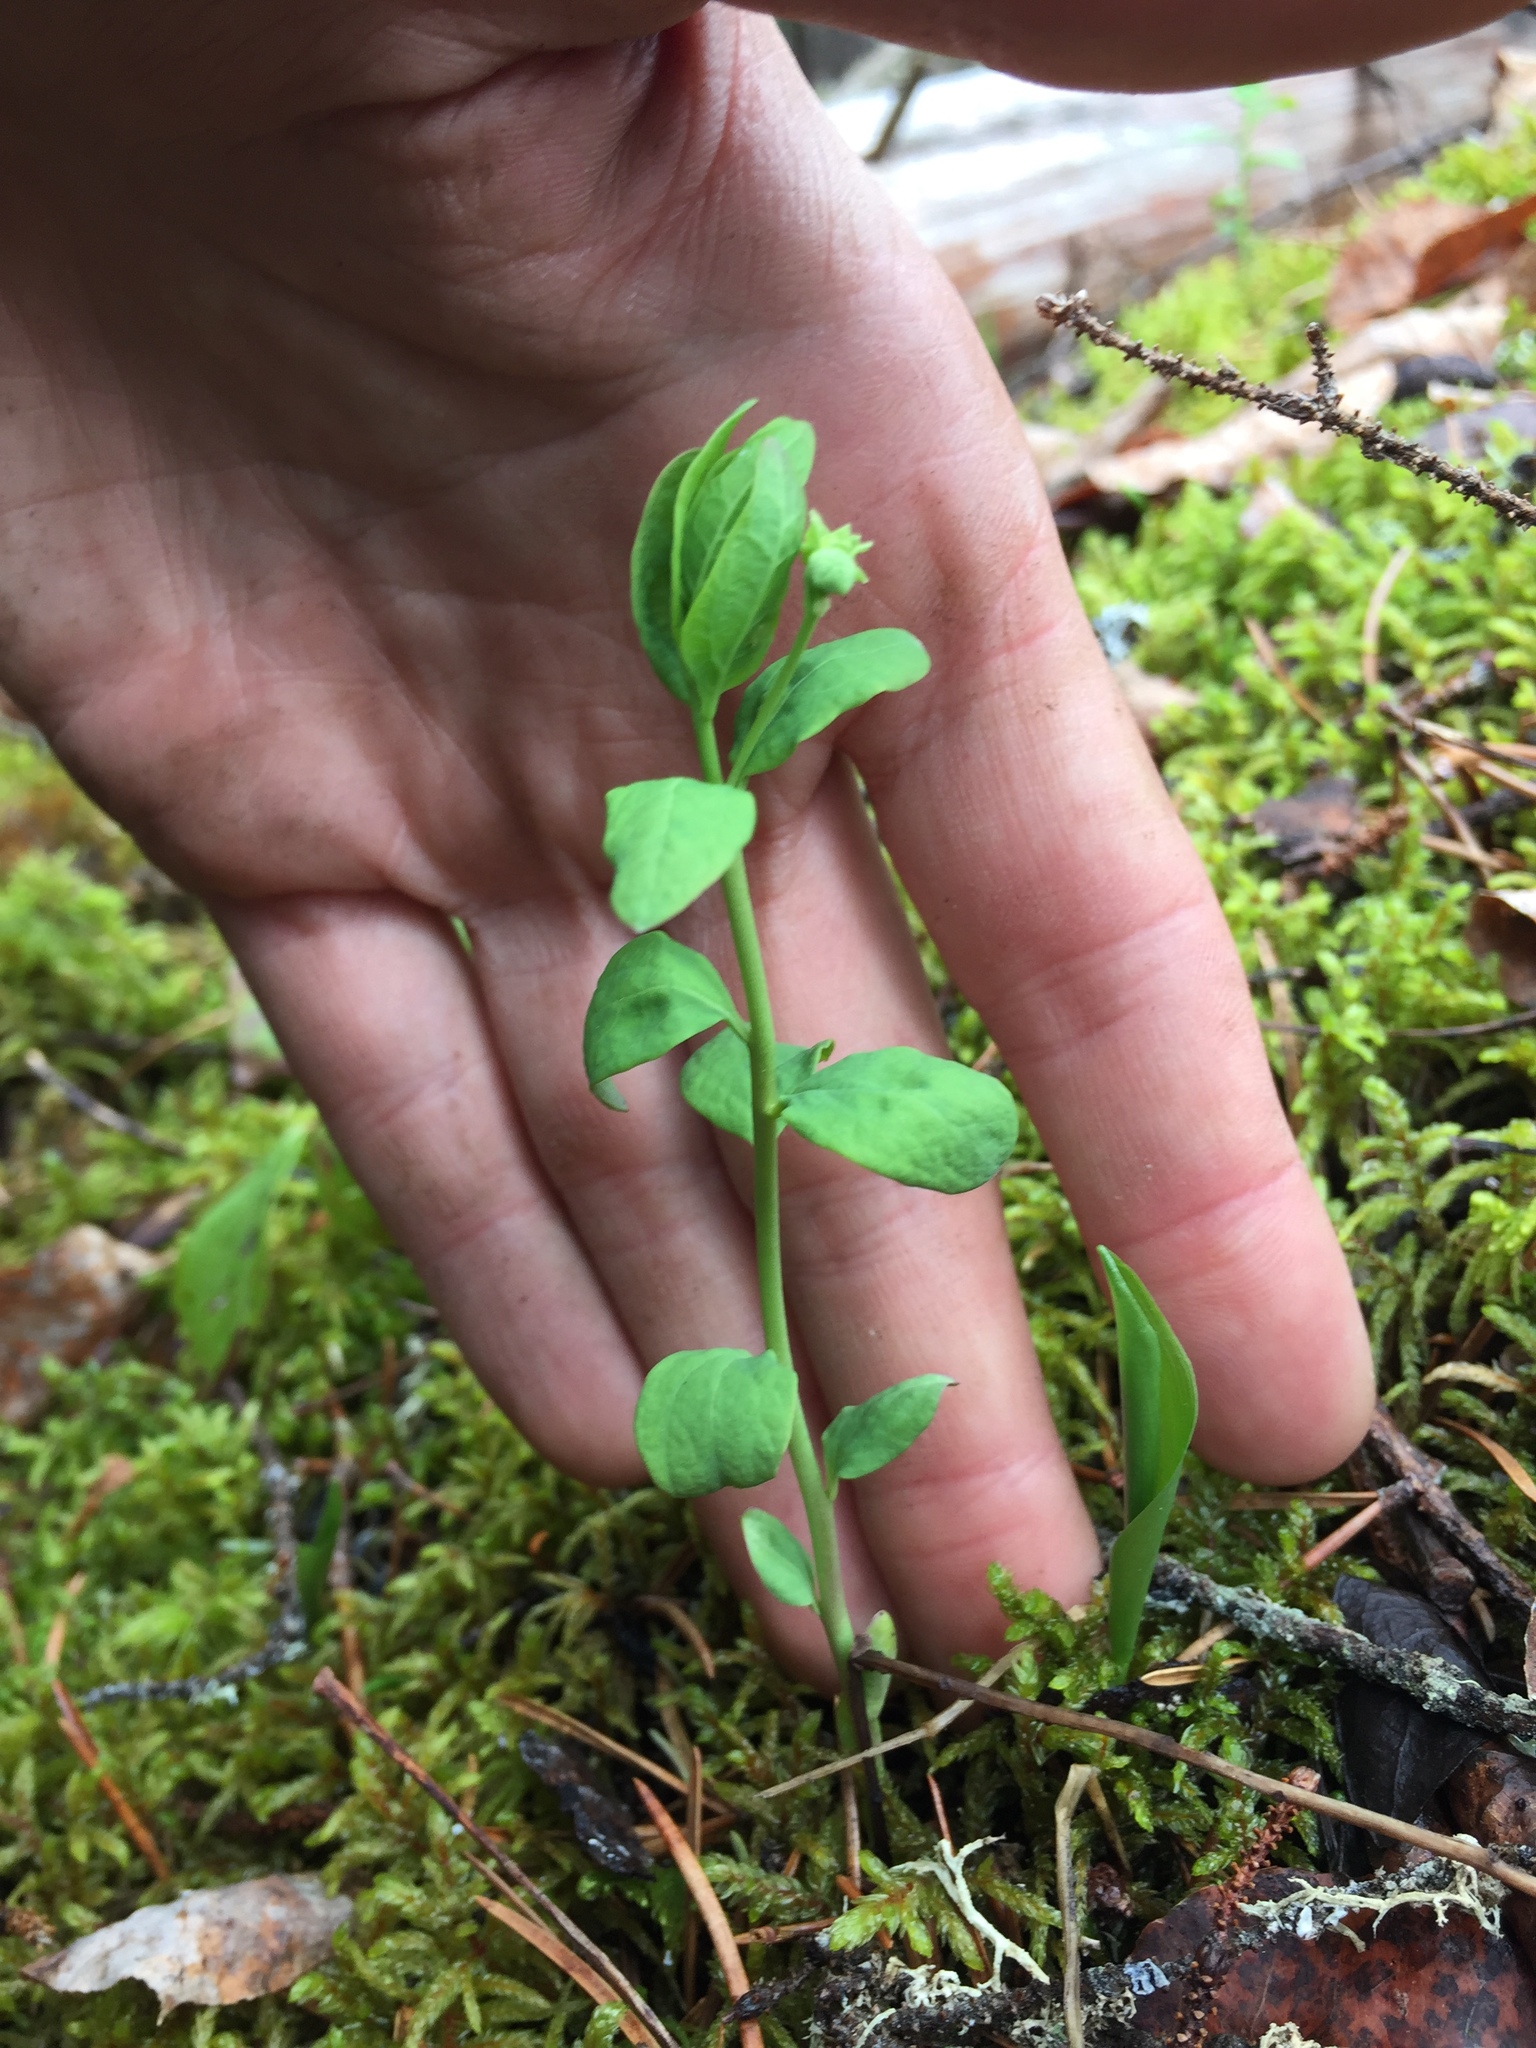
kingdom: Plantae
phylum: Tracheophyta
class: Magnoliopsida
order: Santalales
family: Comandraceae
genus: Geocaulon
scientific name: Geocaulon lividum
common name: Earthberry
